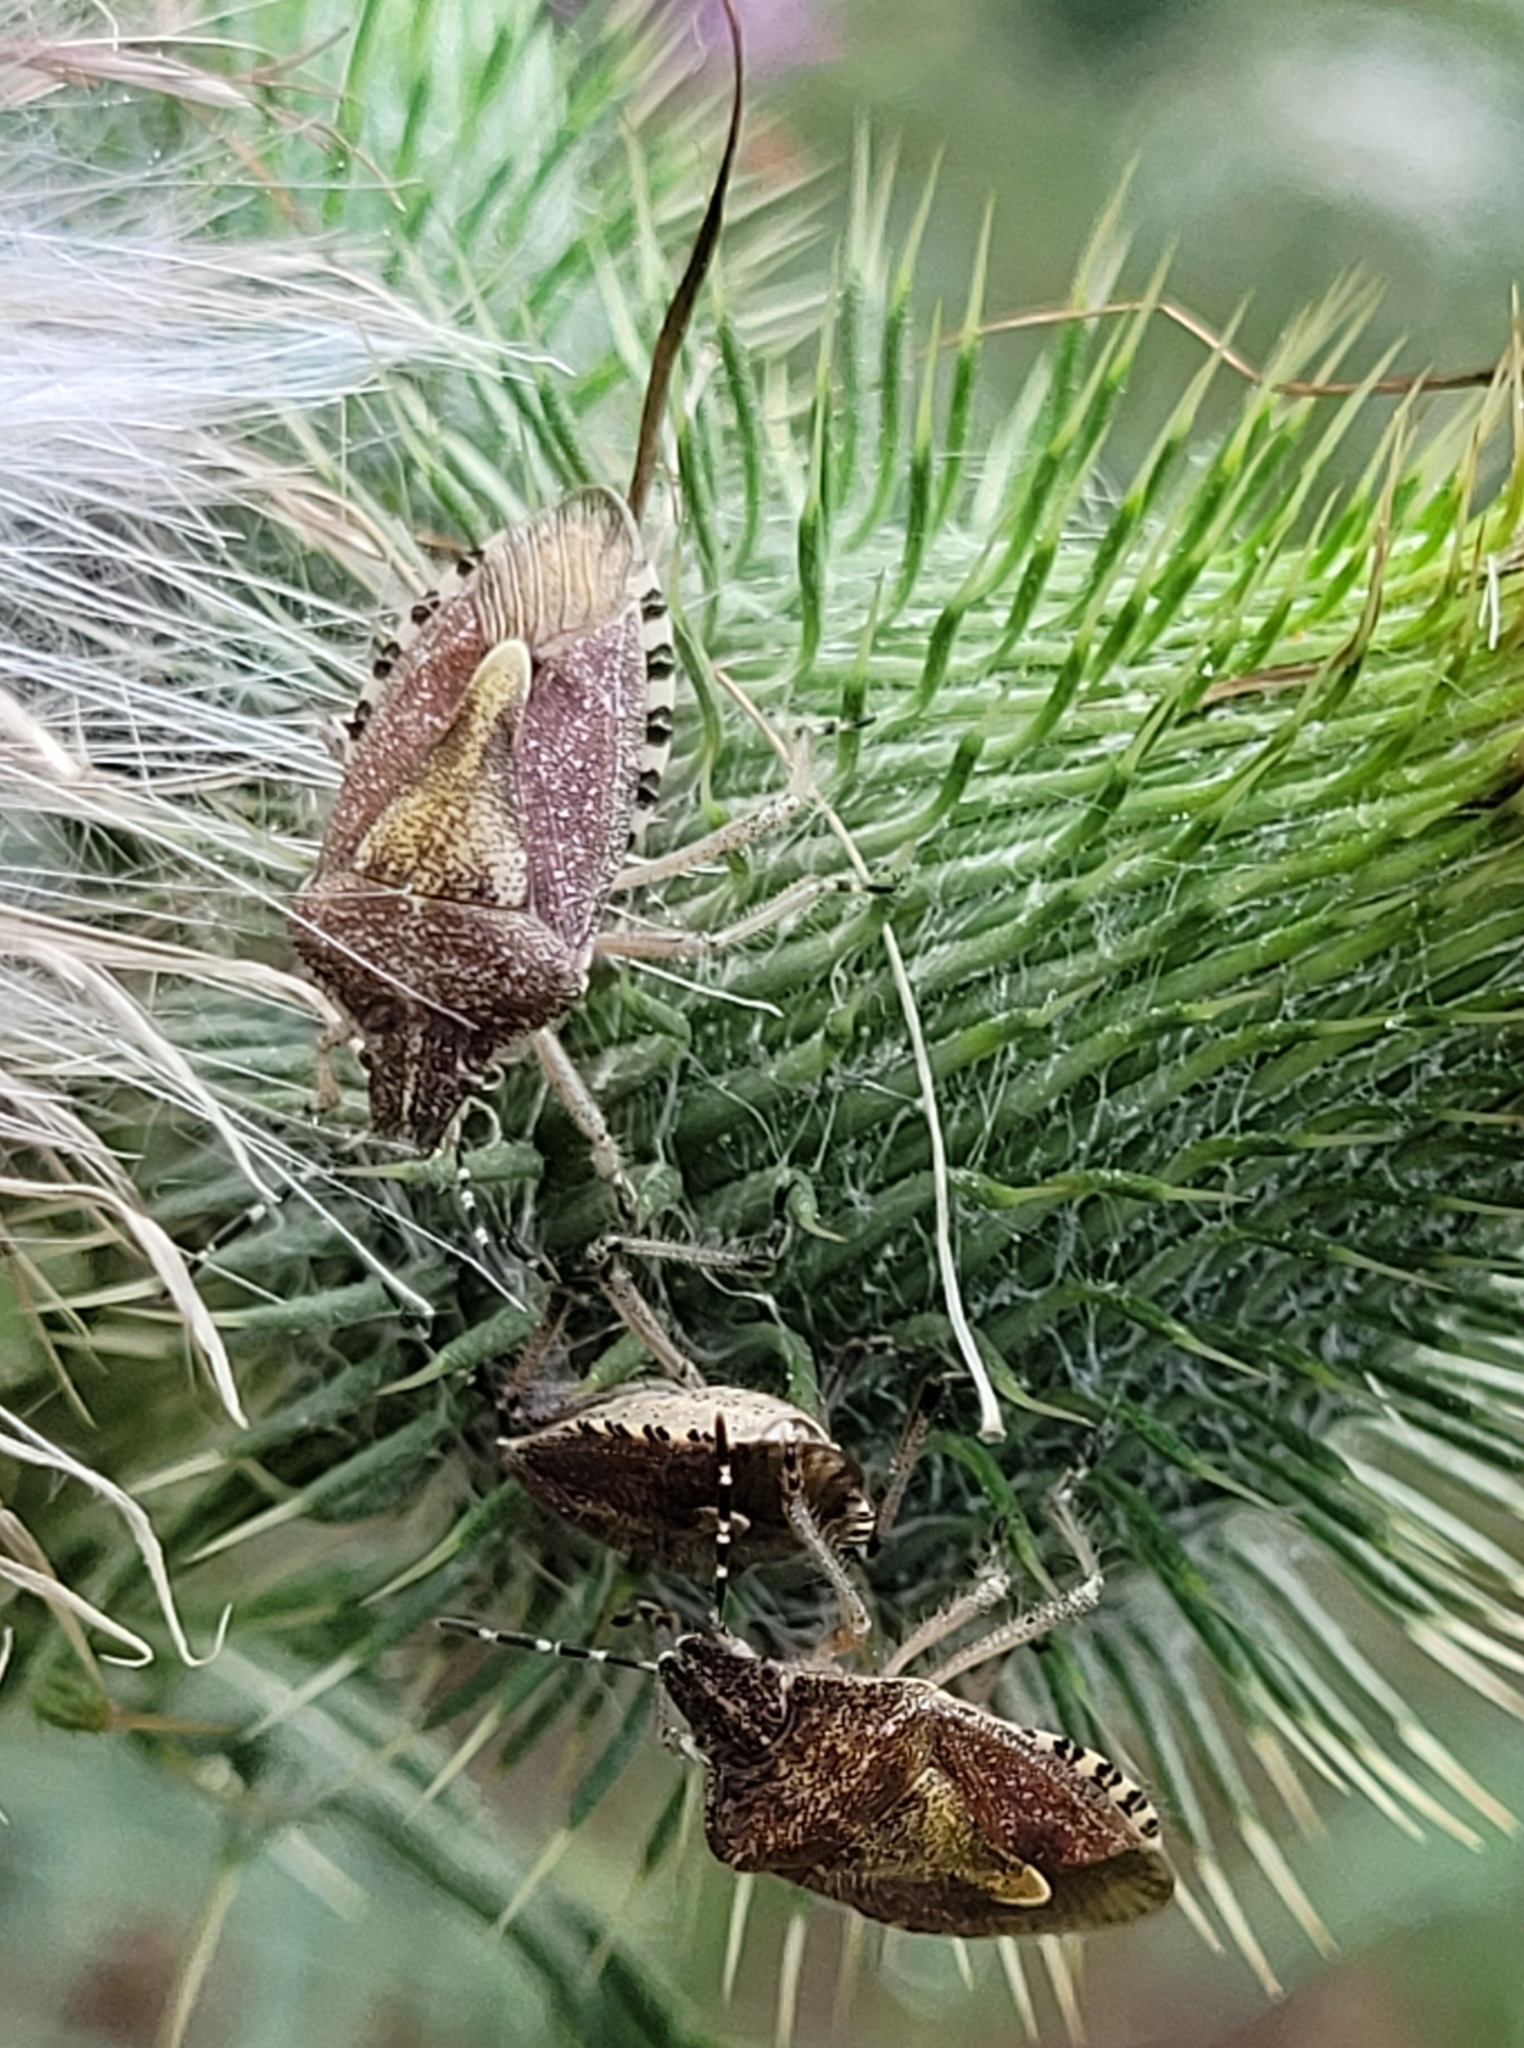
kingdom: Animalia
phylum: Arthropoda
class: Insecta
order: Hemiptera
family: Pentatomidae
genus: Dolycoris
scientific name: Dolycoris baccarum
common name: Sloe bug
